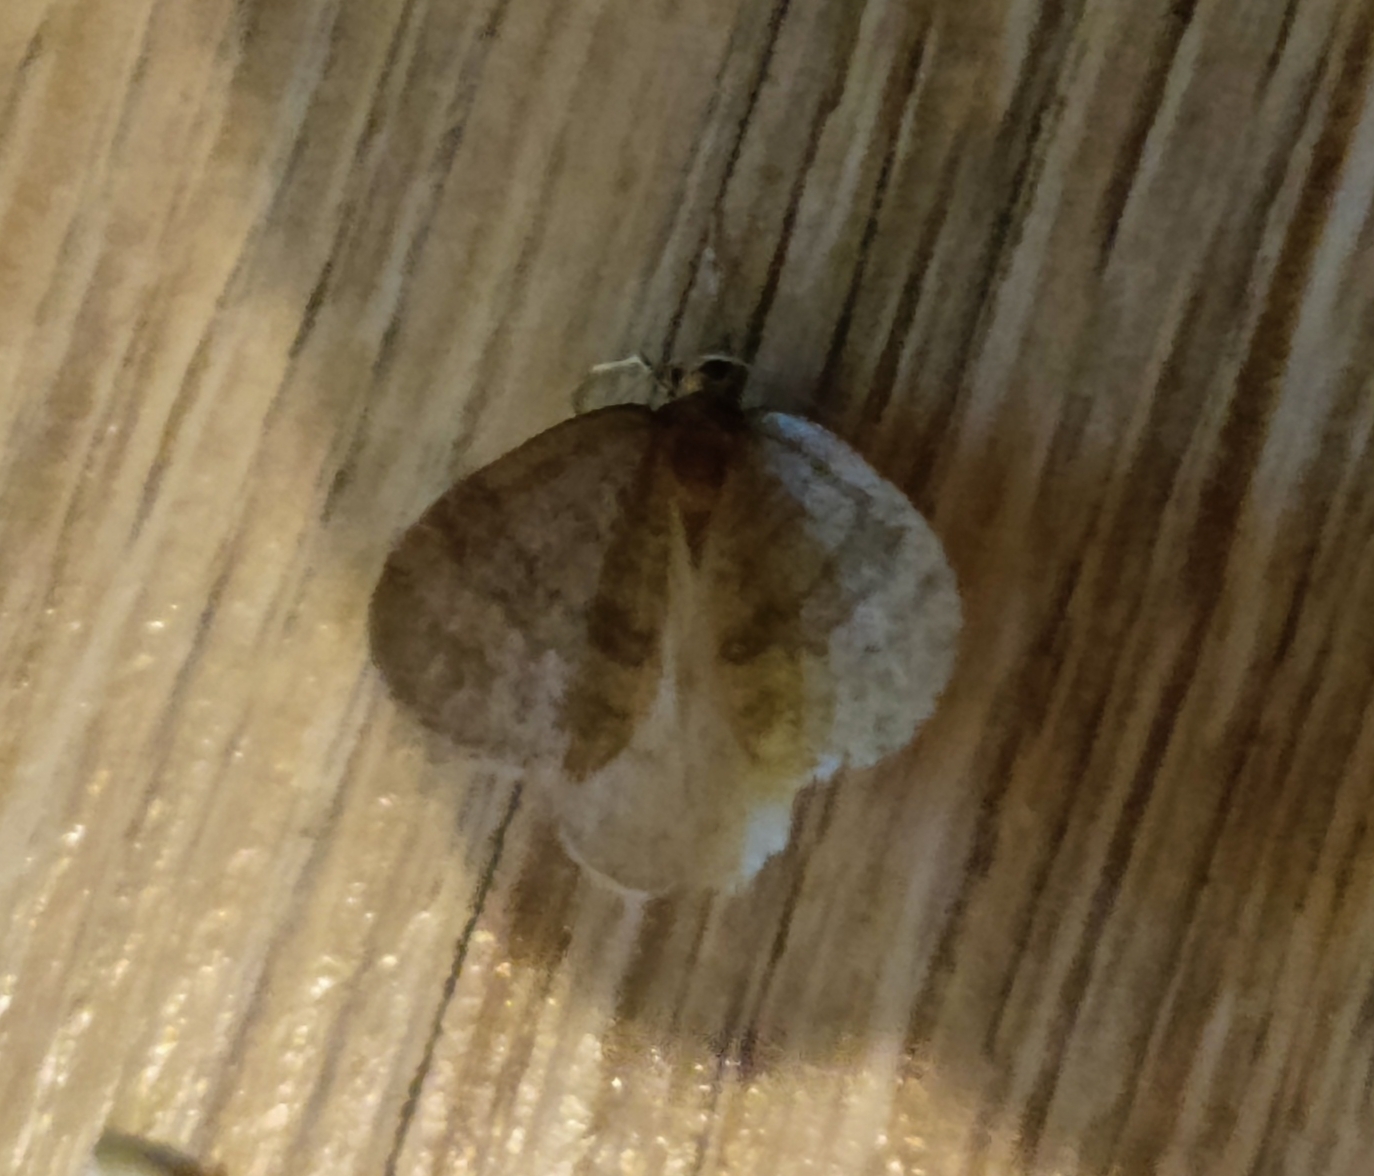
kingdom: Animalia
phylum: Arthropoda
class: Insecta
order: Lepidoptera
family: Geometridae
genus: Operophtera
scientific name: Operophtera brumata
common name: Winter moth
